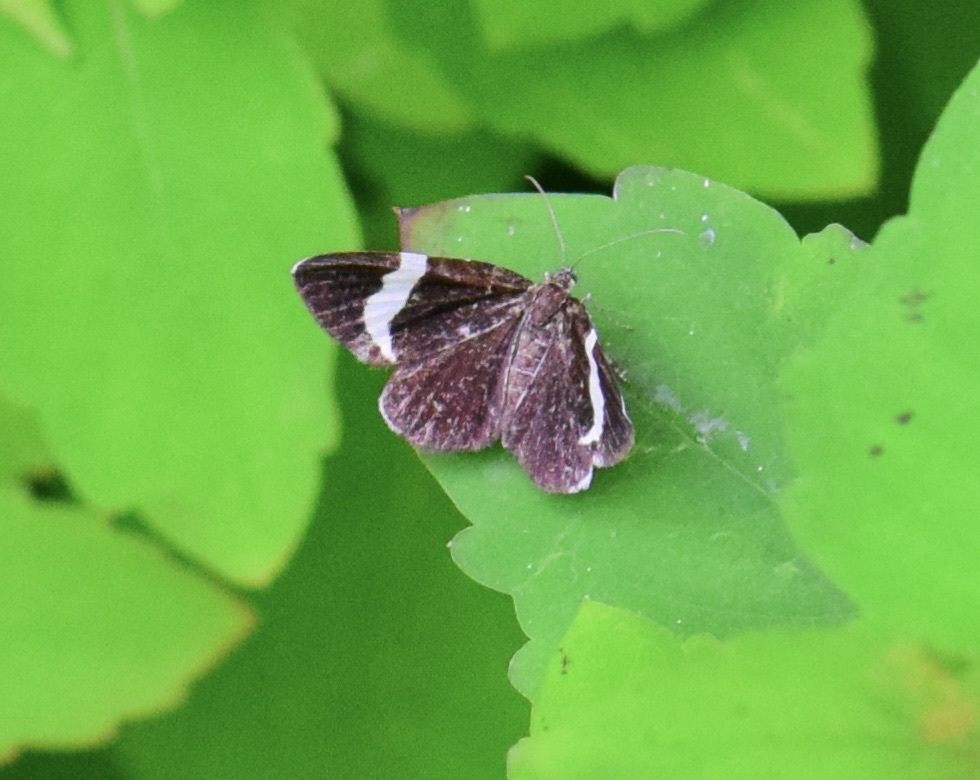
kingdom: Animalia
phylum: Arthropoda
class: Insecta
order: Lepidoptera
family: Geometridae
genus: Trichodezia
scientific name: Trichodezia albovittata
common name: White striped black
